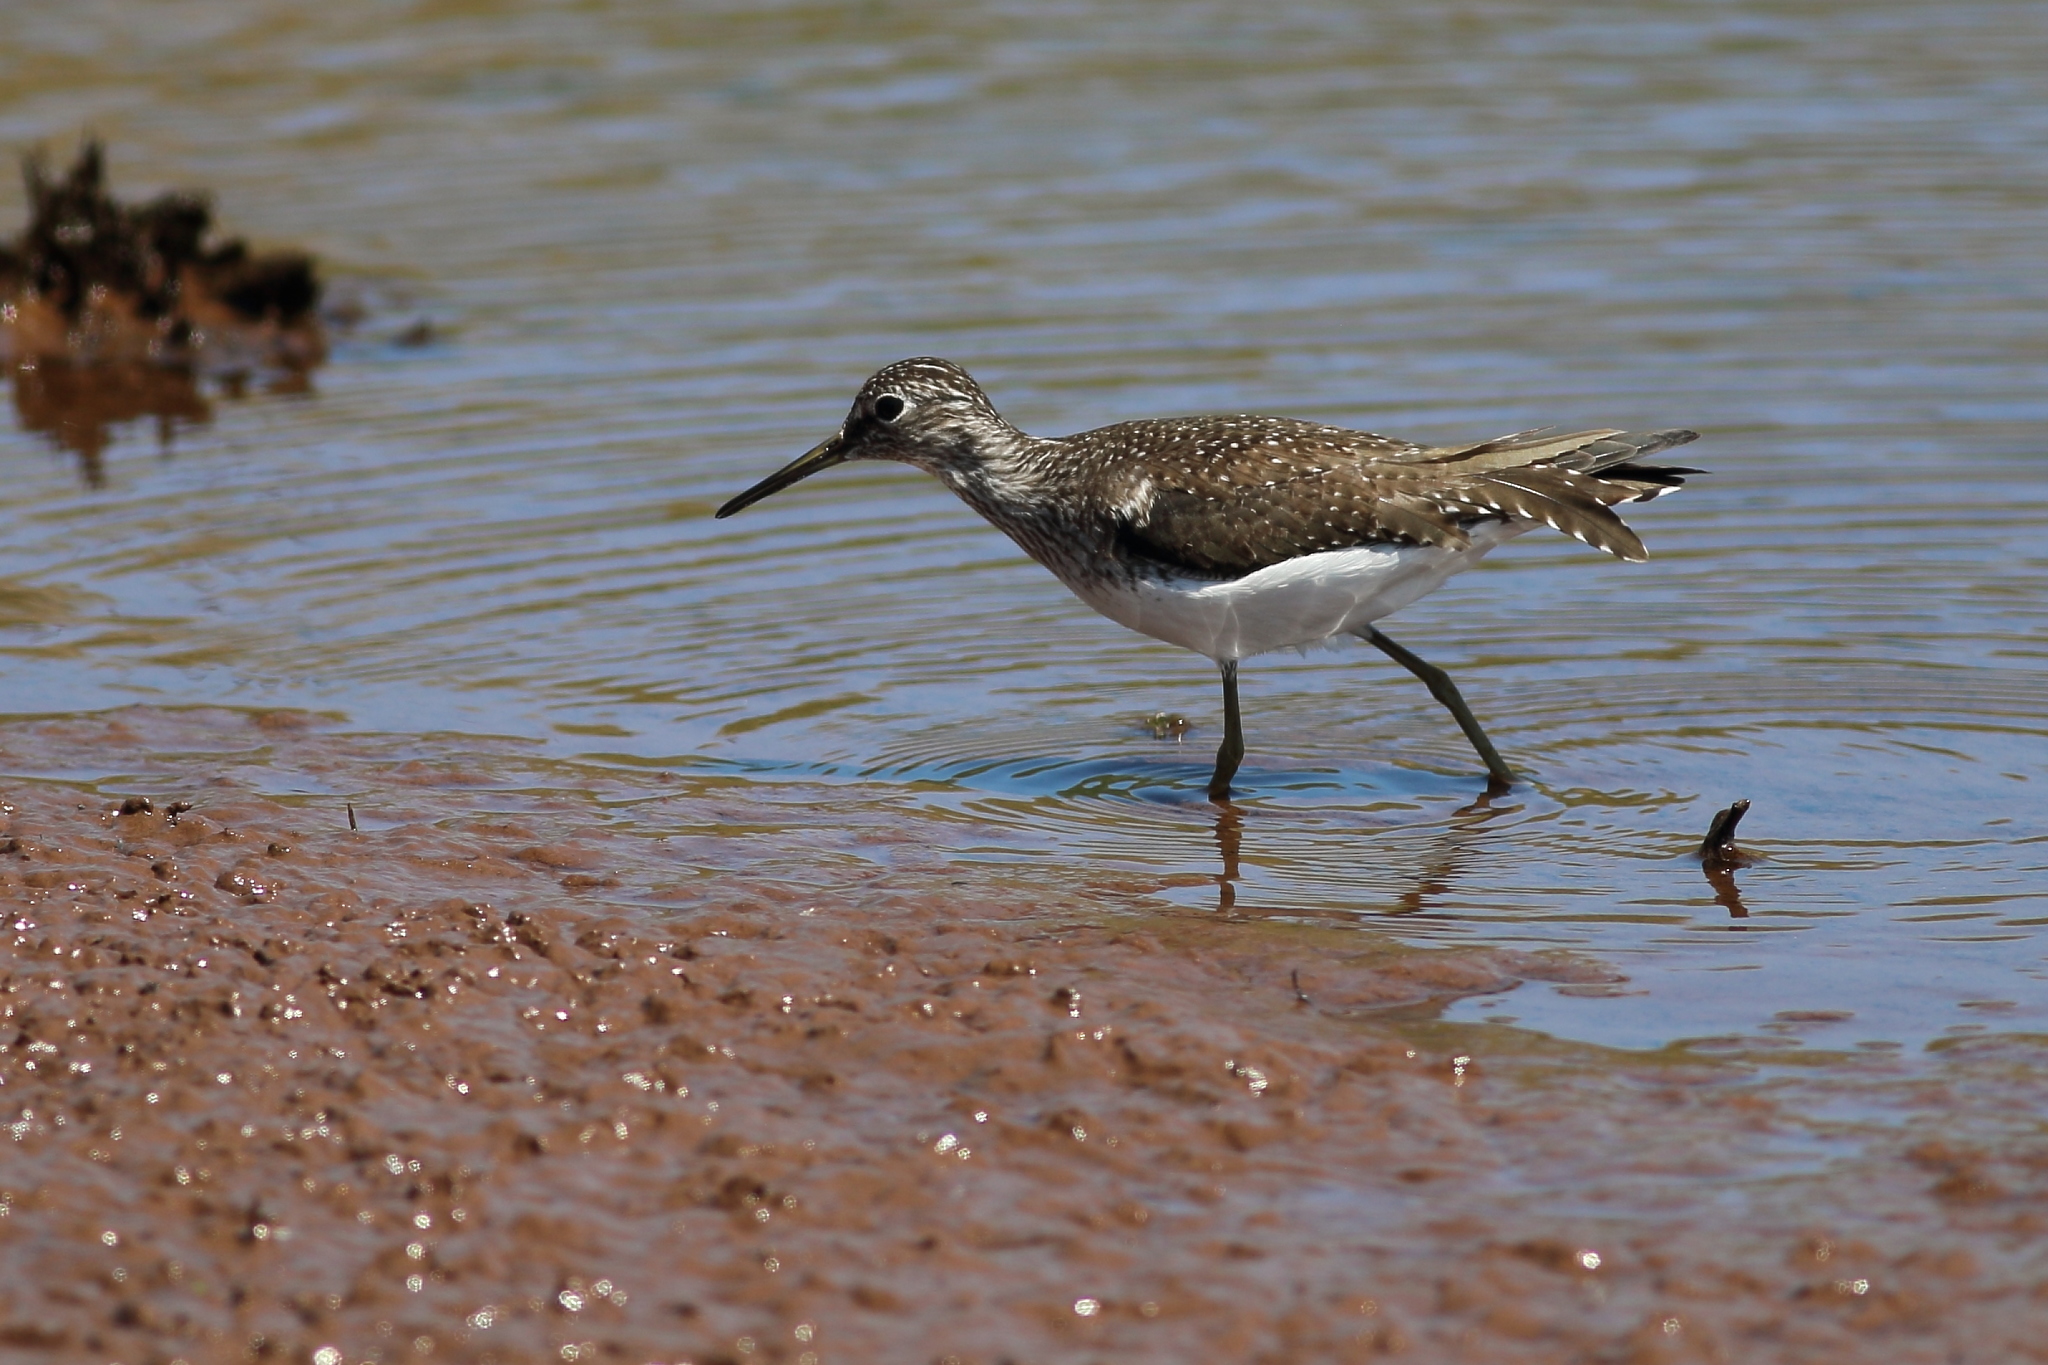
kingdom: Animalia
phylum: Chordata
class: Aves
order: Charadriiformes
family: Scolopacidae
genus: Tringa
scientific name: Tringa solitaria
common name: Solitary sandpiper
